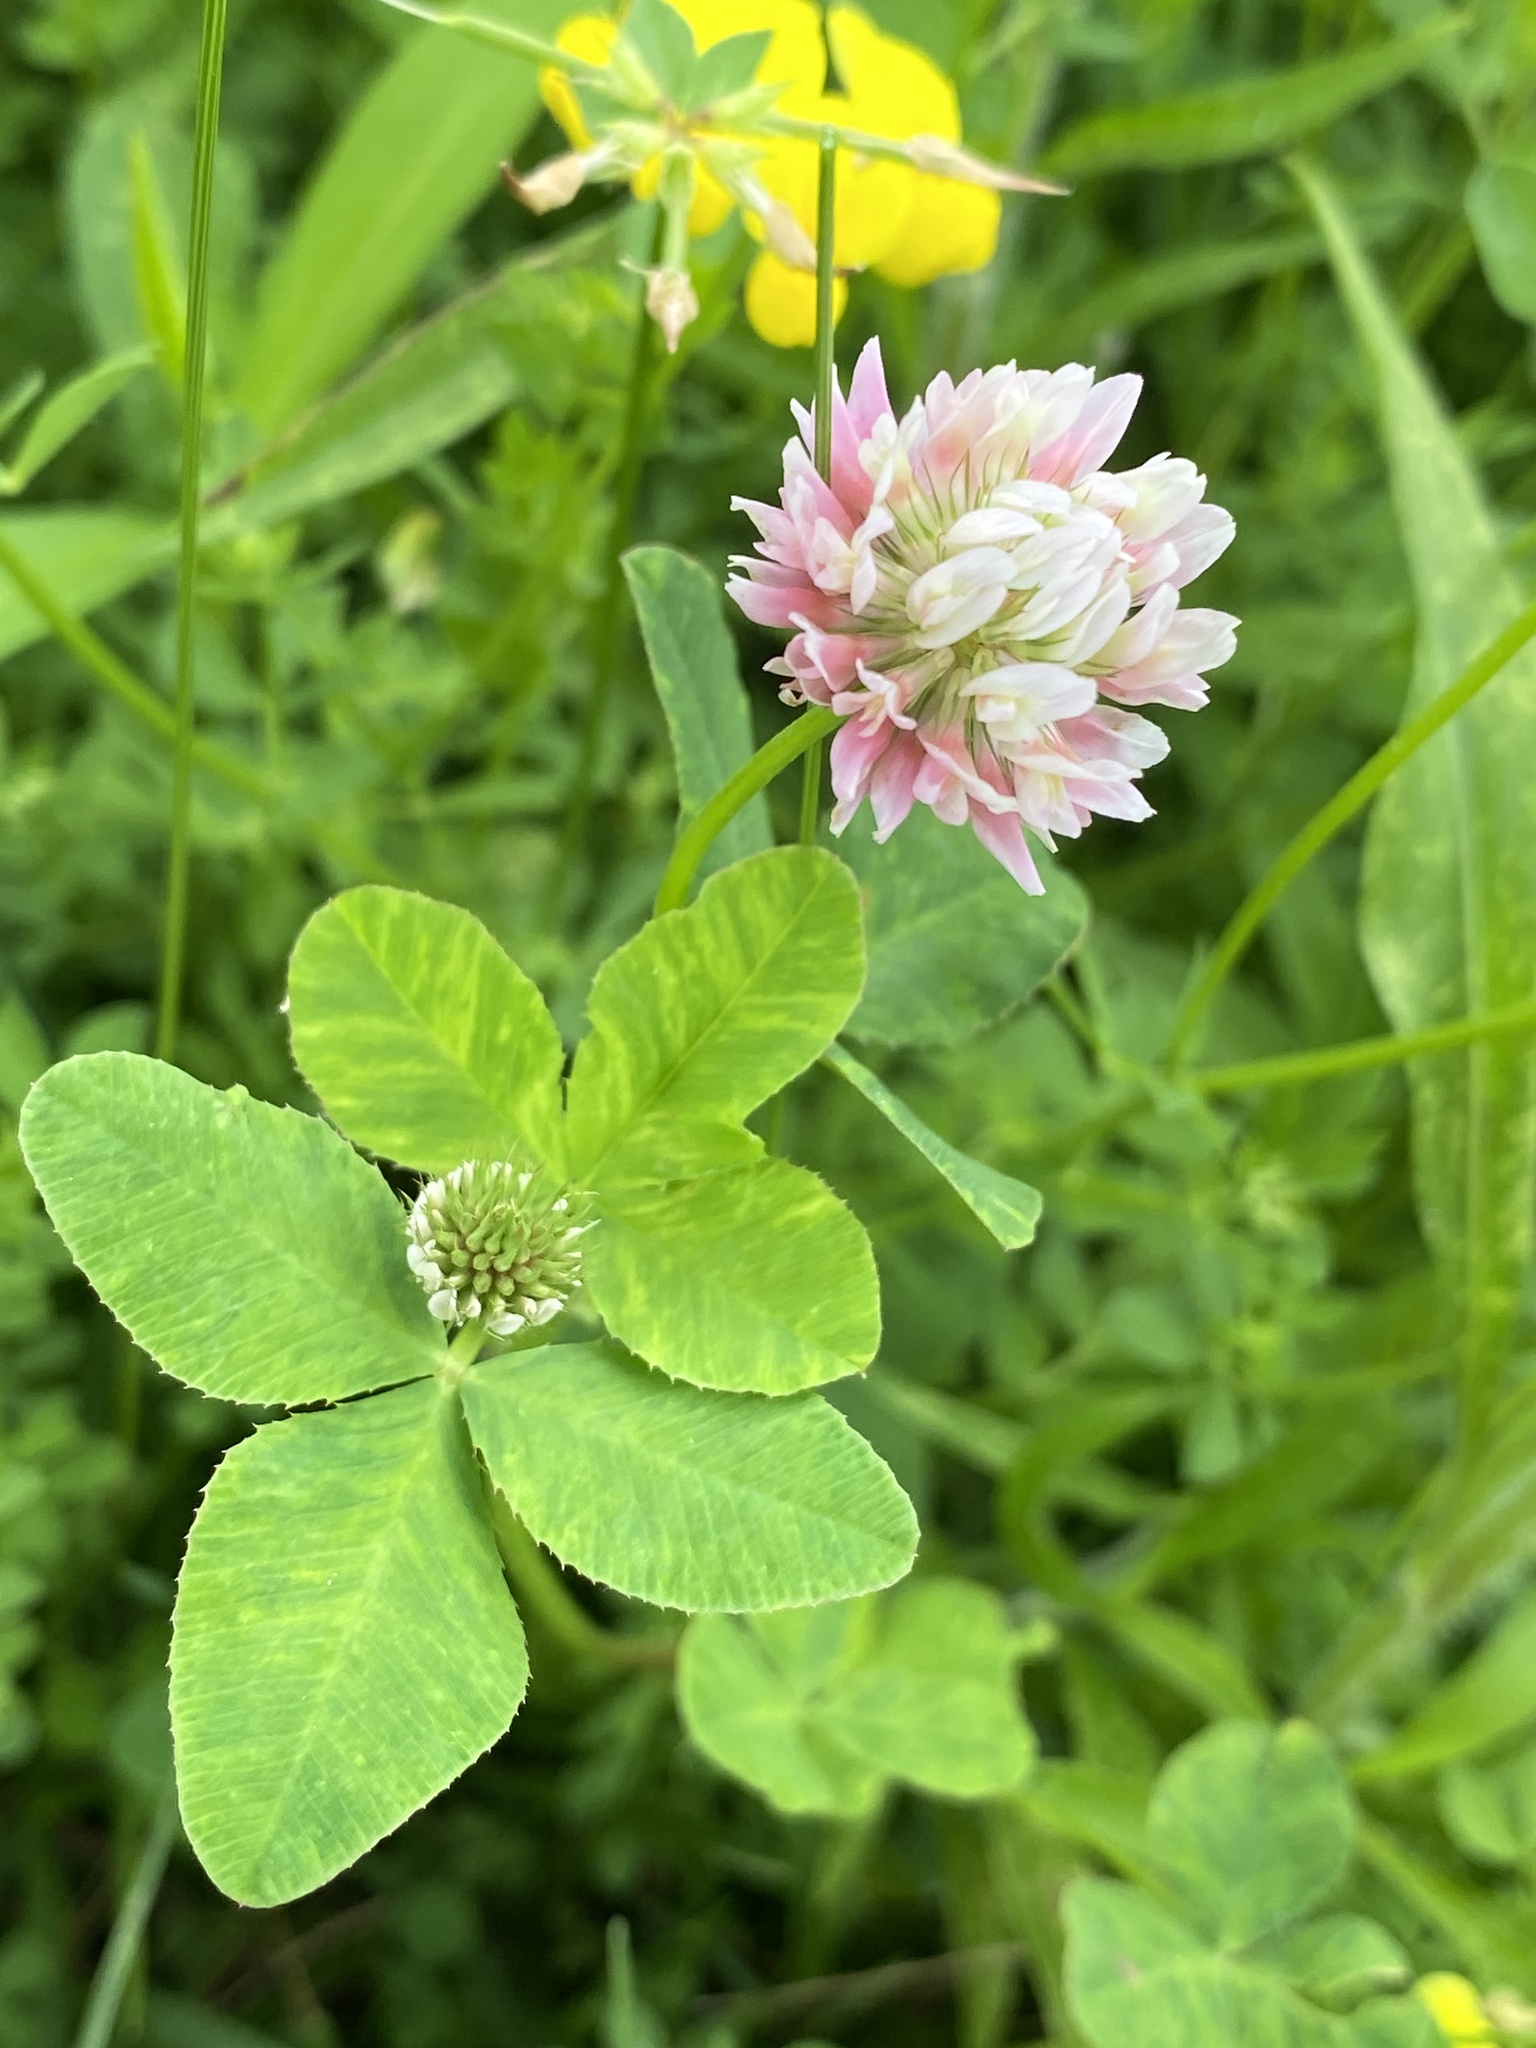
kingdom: Plantae
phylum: Tracheophyta
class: Magnoliopsida
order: Fabales
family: Fabaceae
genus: Trifolium
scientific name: Trifolium hybridum
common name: Alsike clover
